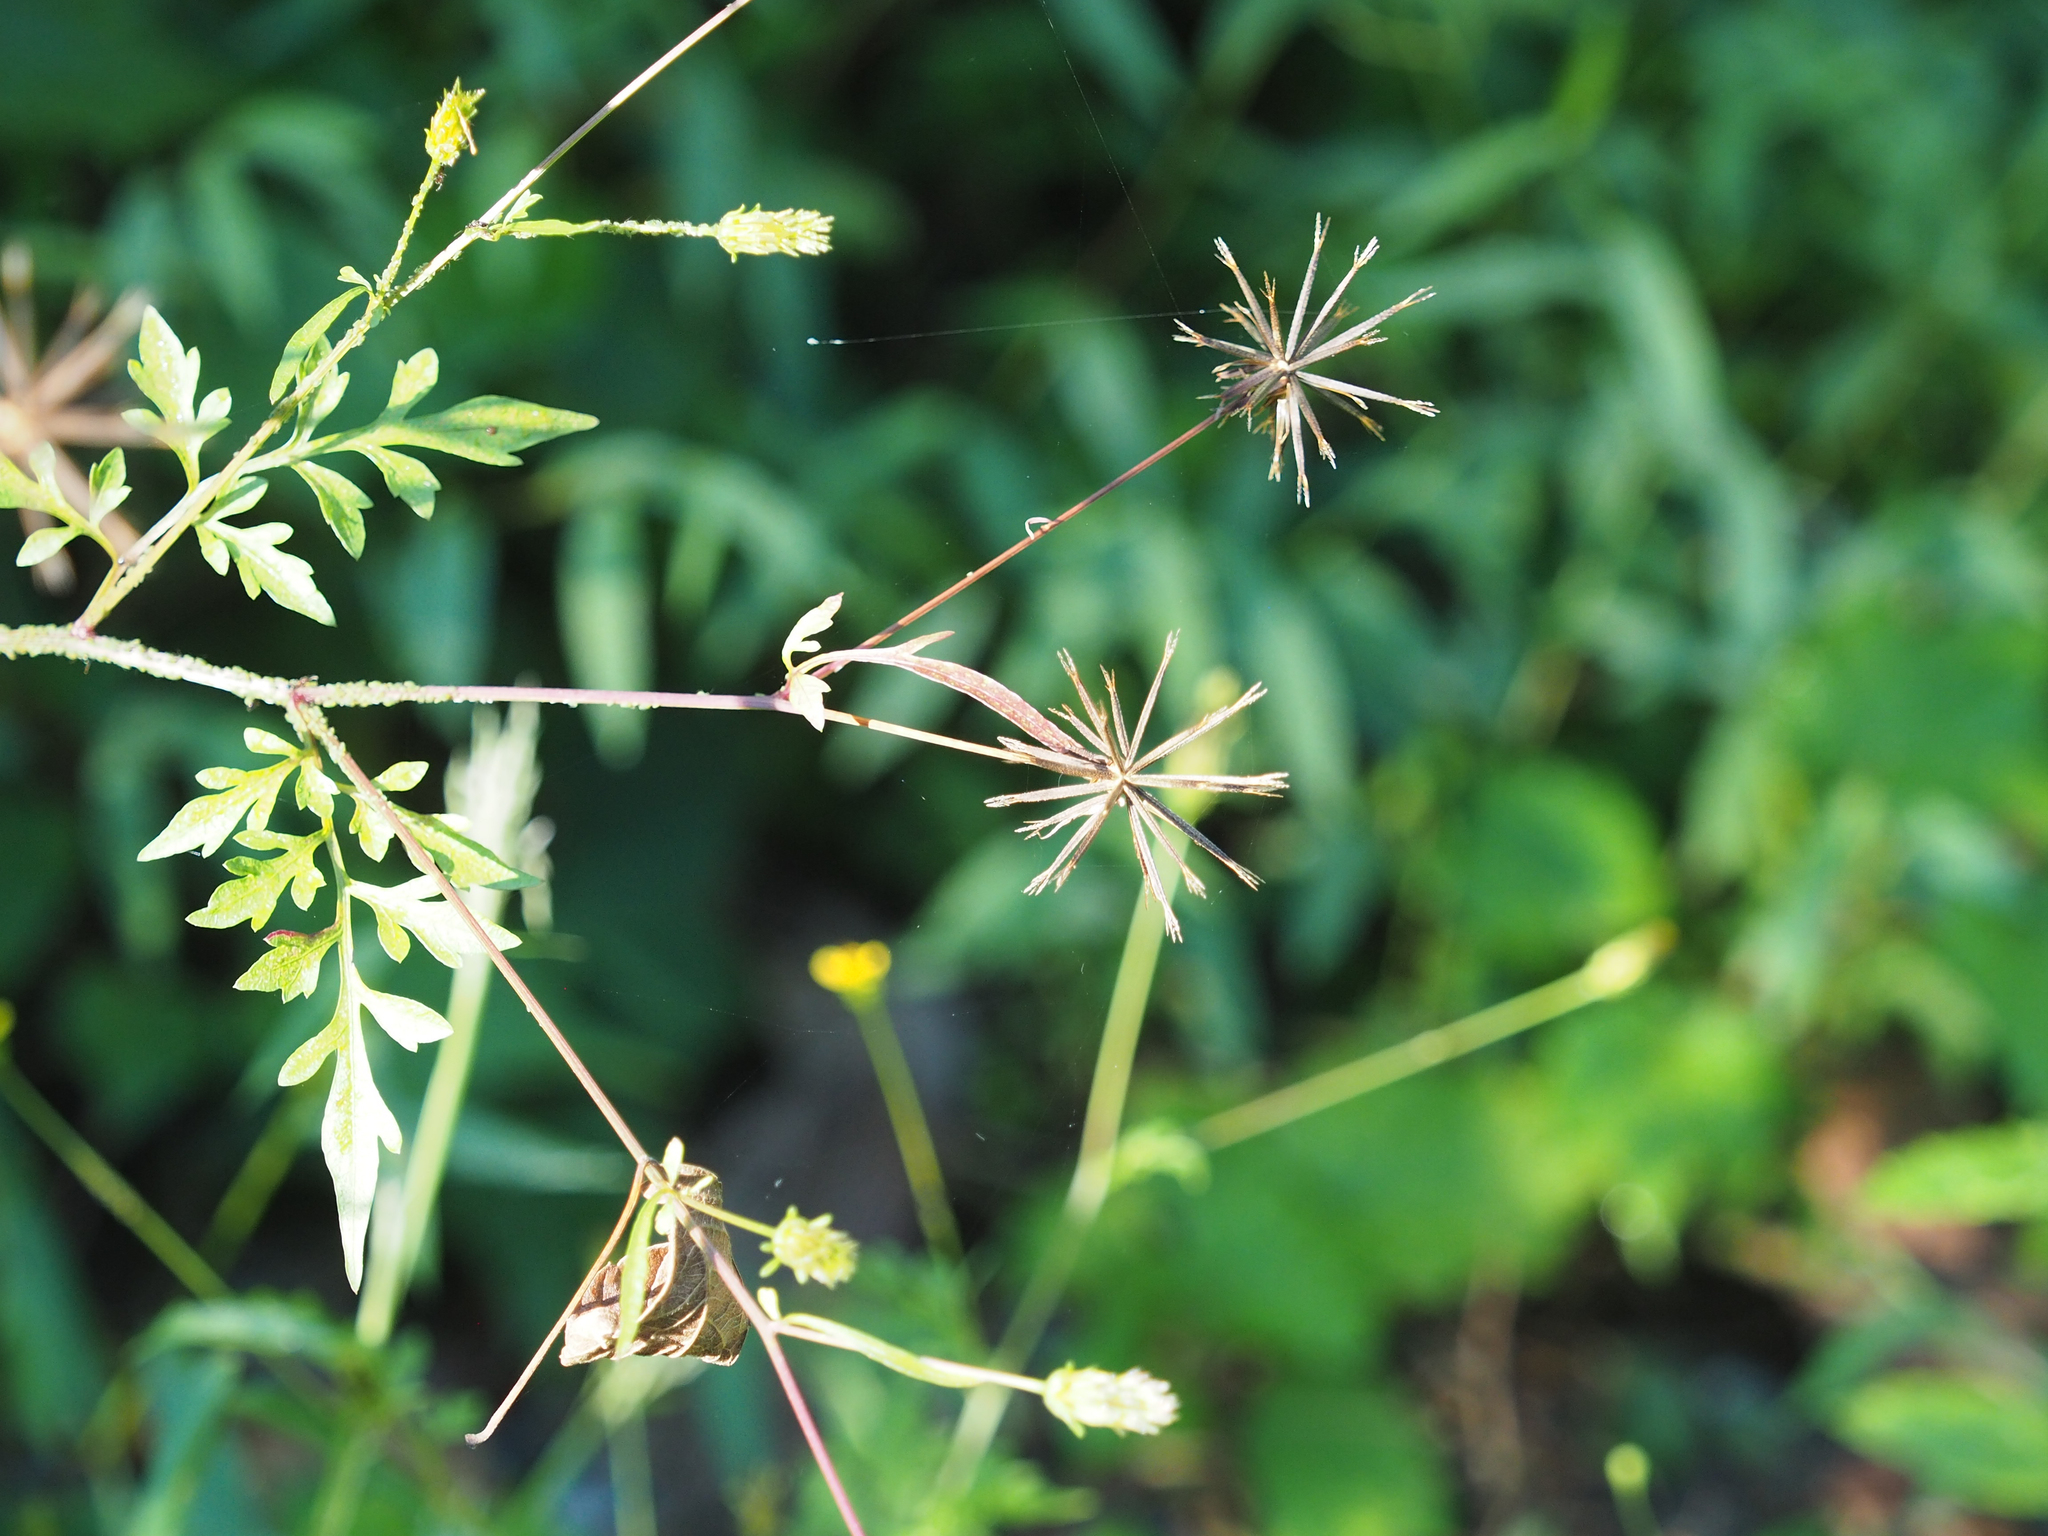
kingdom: Plantae
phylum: Tracheophyta
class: Magnoliopsida
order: Asterales
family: Asteraceae
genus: Bidens
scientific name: Bidens bipinnata
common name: Spanish-needles
